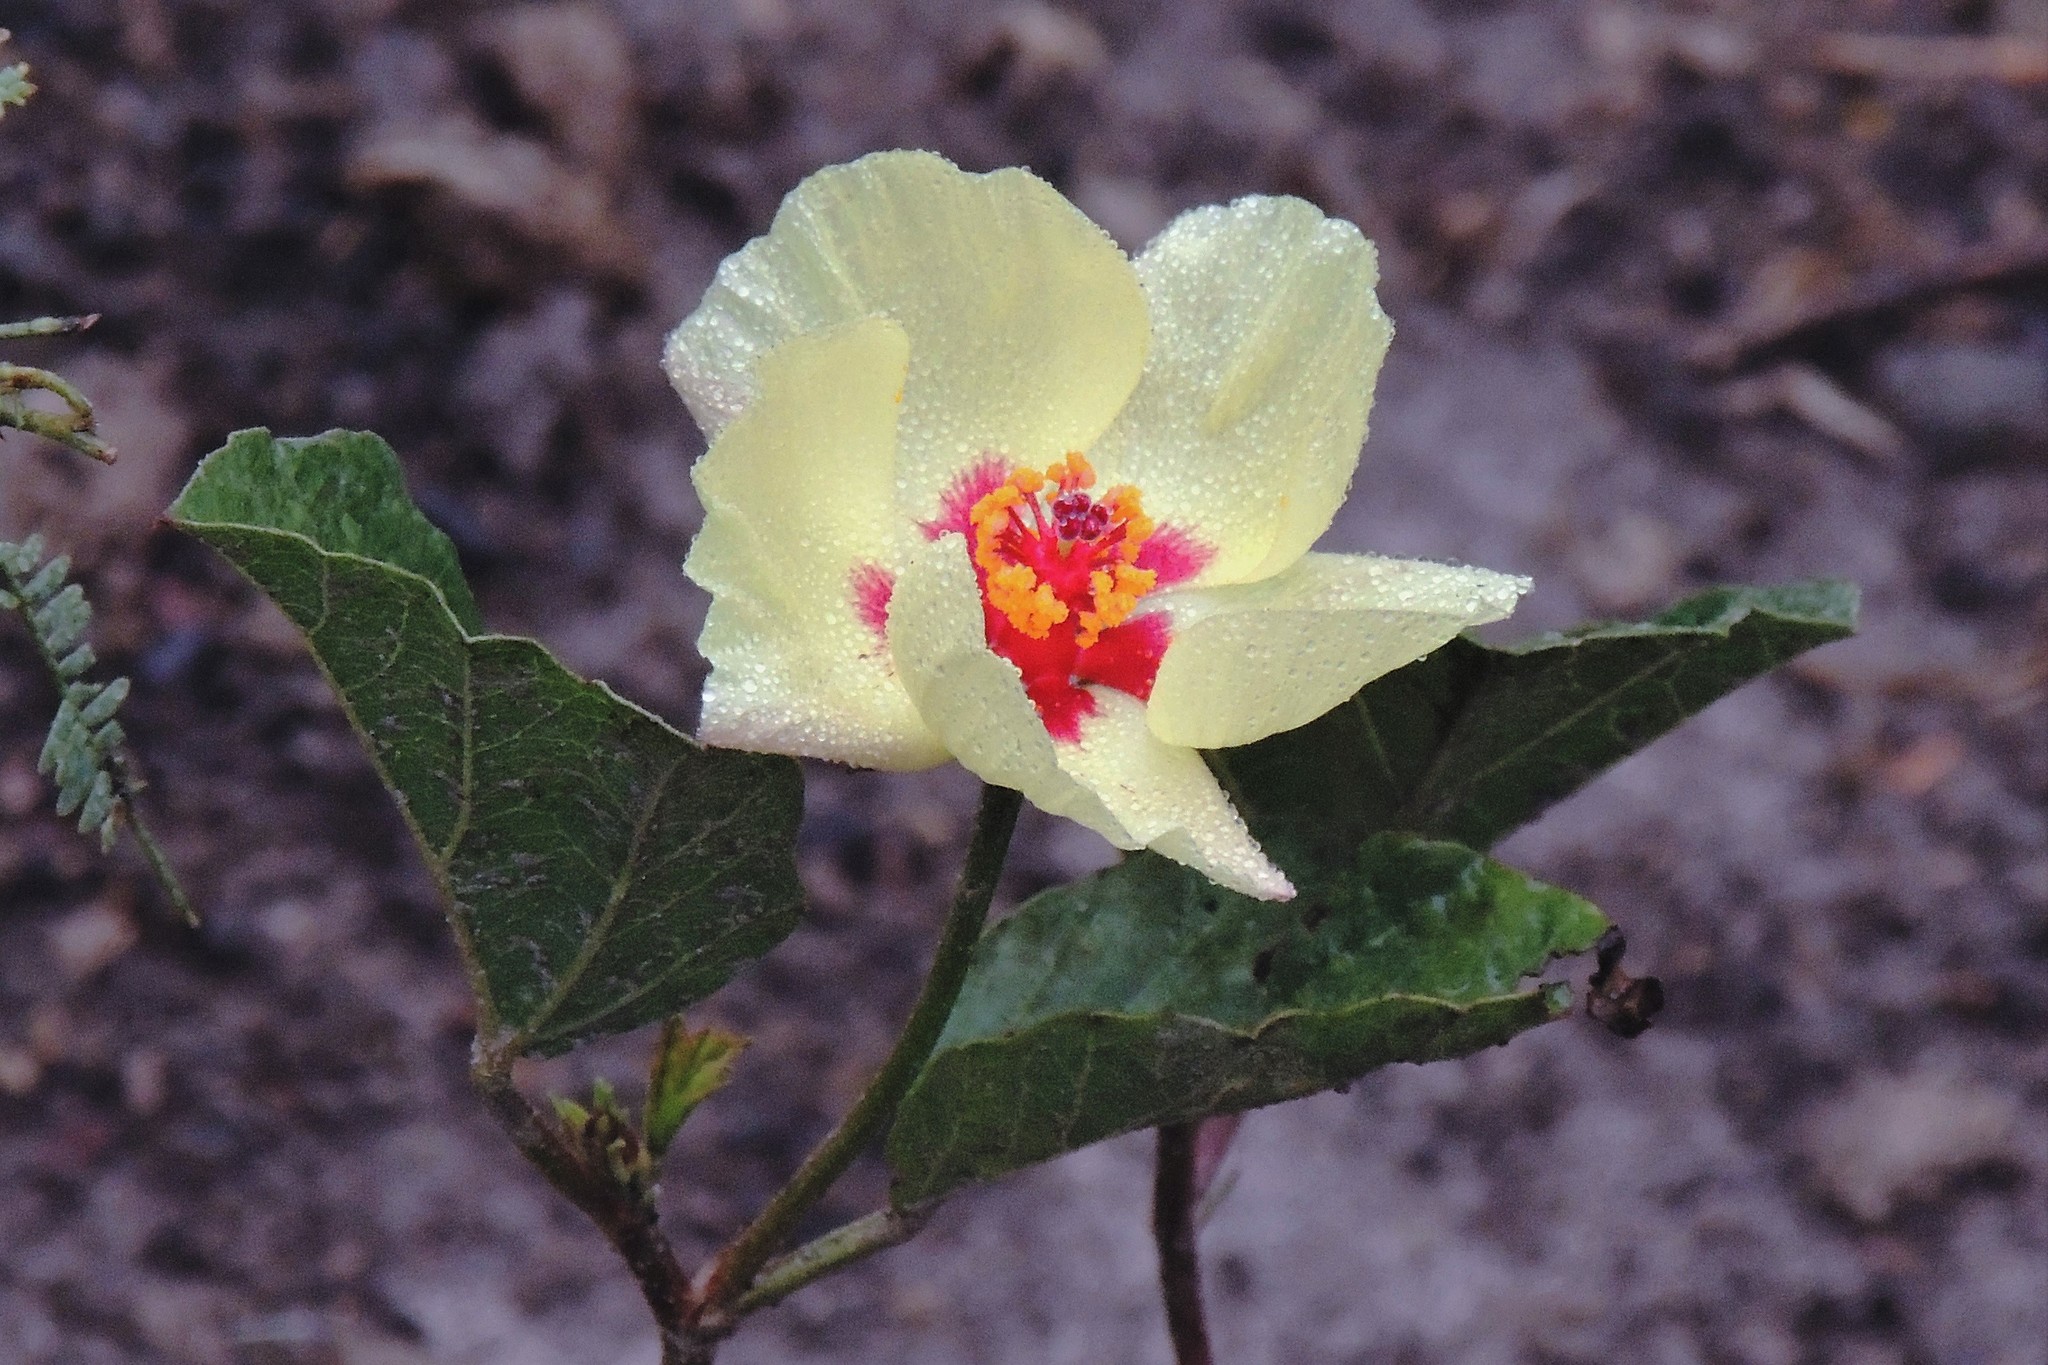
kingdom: Plantae
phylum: Tracheophyta
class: Magnoliopsida
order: Malvales
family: Malvaceae
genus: Cienfuegosia
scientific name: Cienfuegosia hispida
